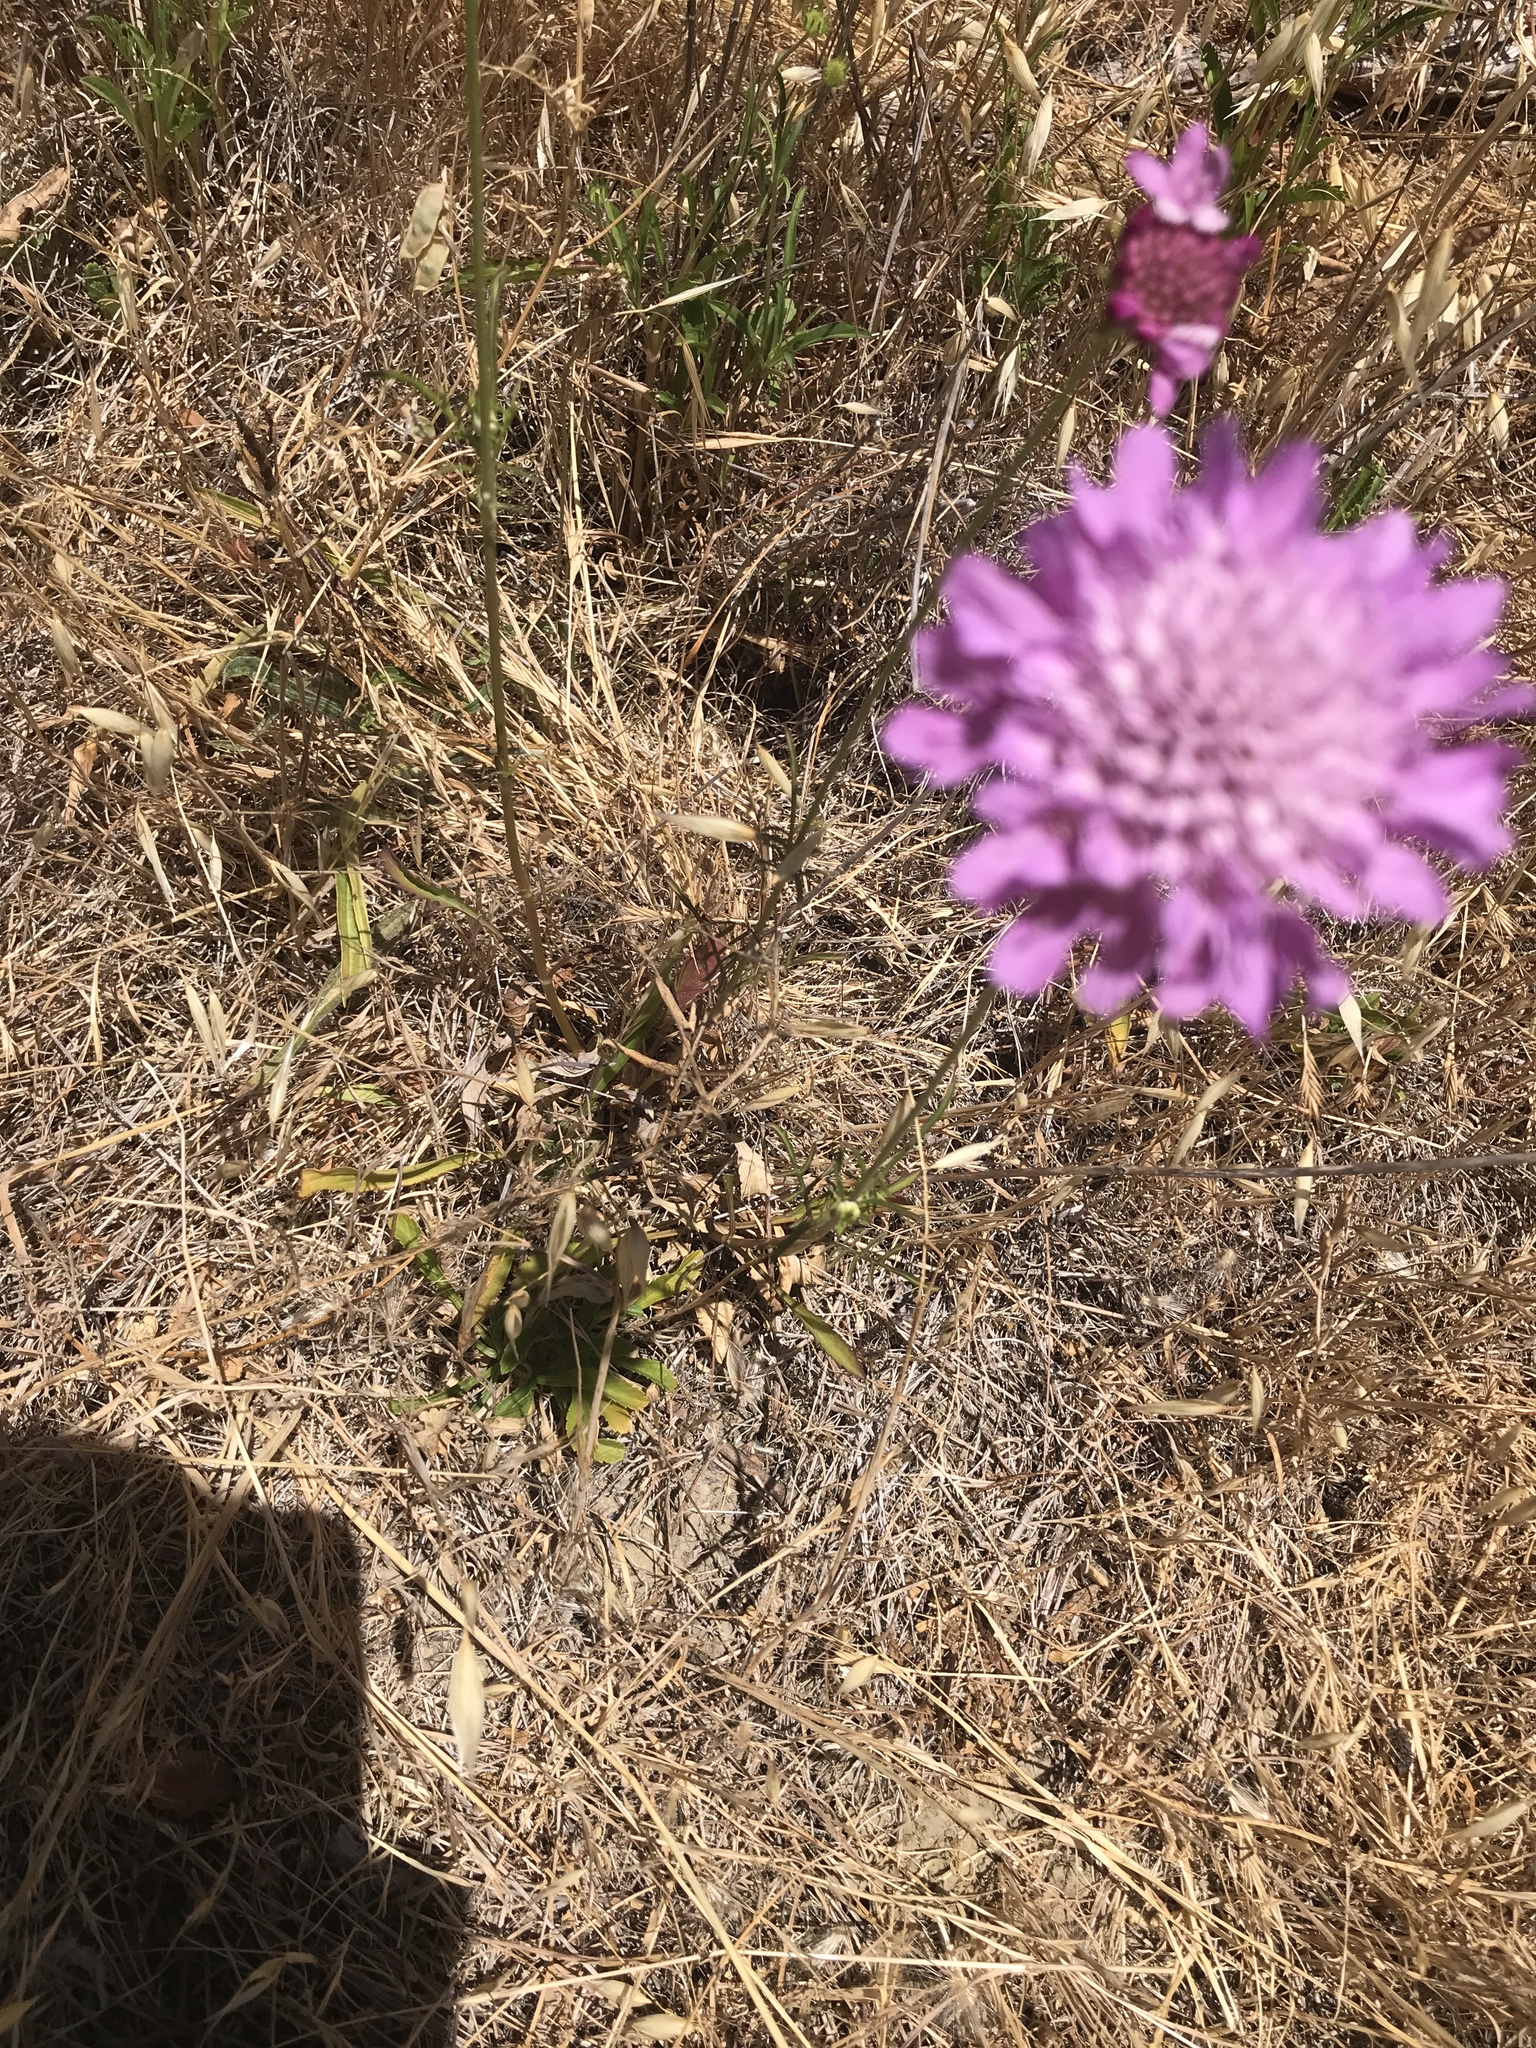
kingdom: Plantae
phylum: Tracheophyta
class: Magnoliopsida
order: Dipsacales
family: Caprifoliaceae
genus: Sixalix
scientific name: Sixalix atropurpurea
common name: Sweet scabious
